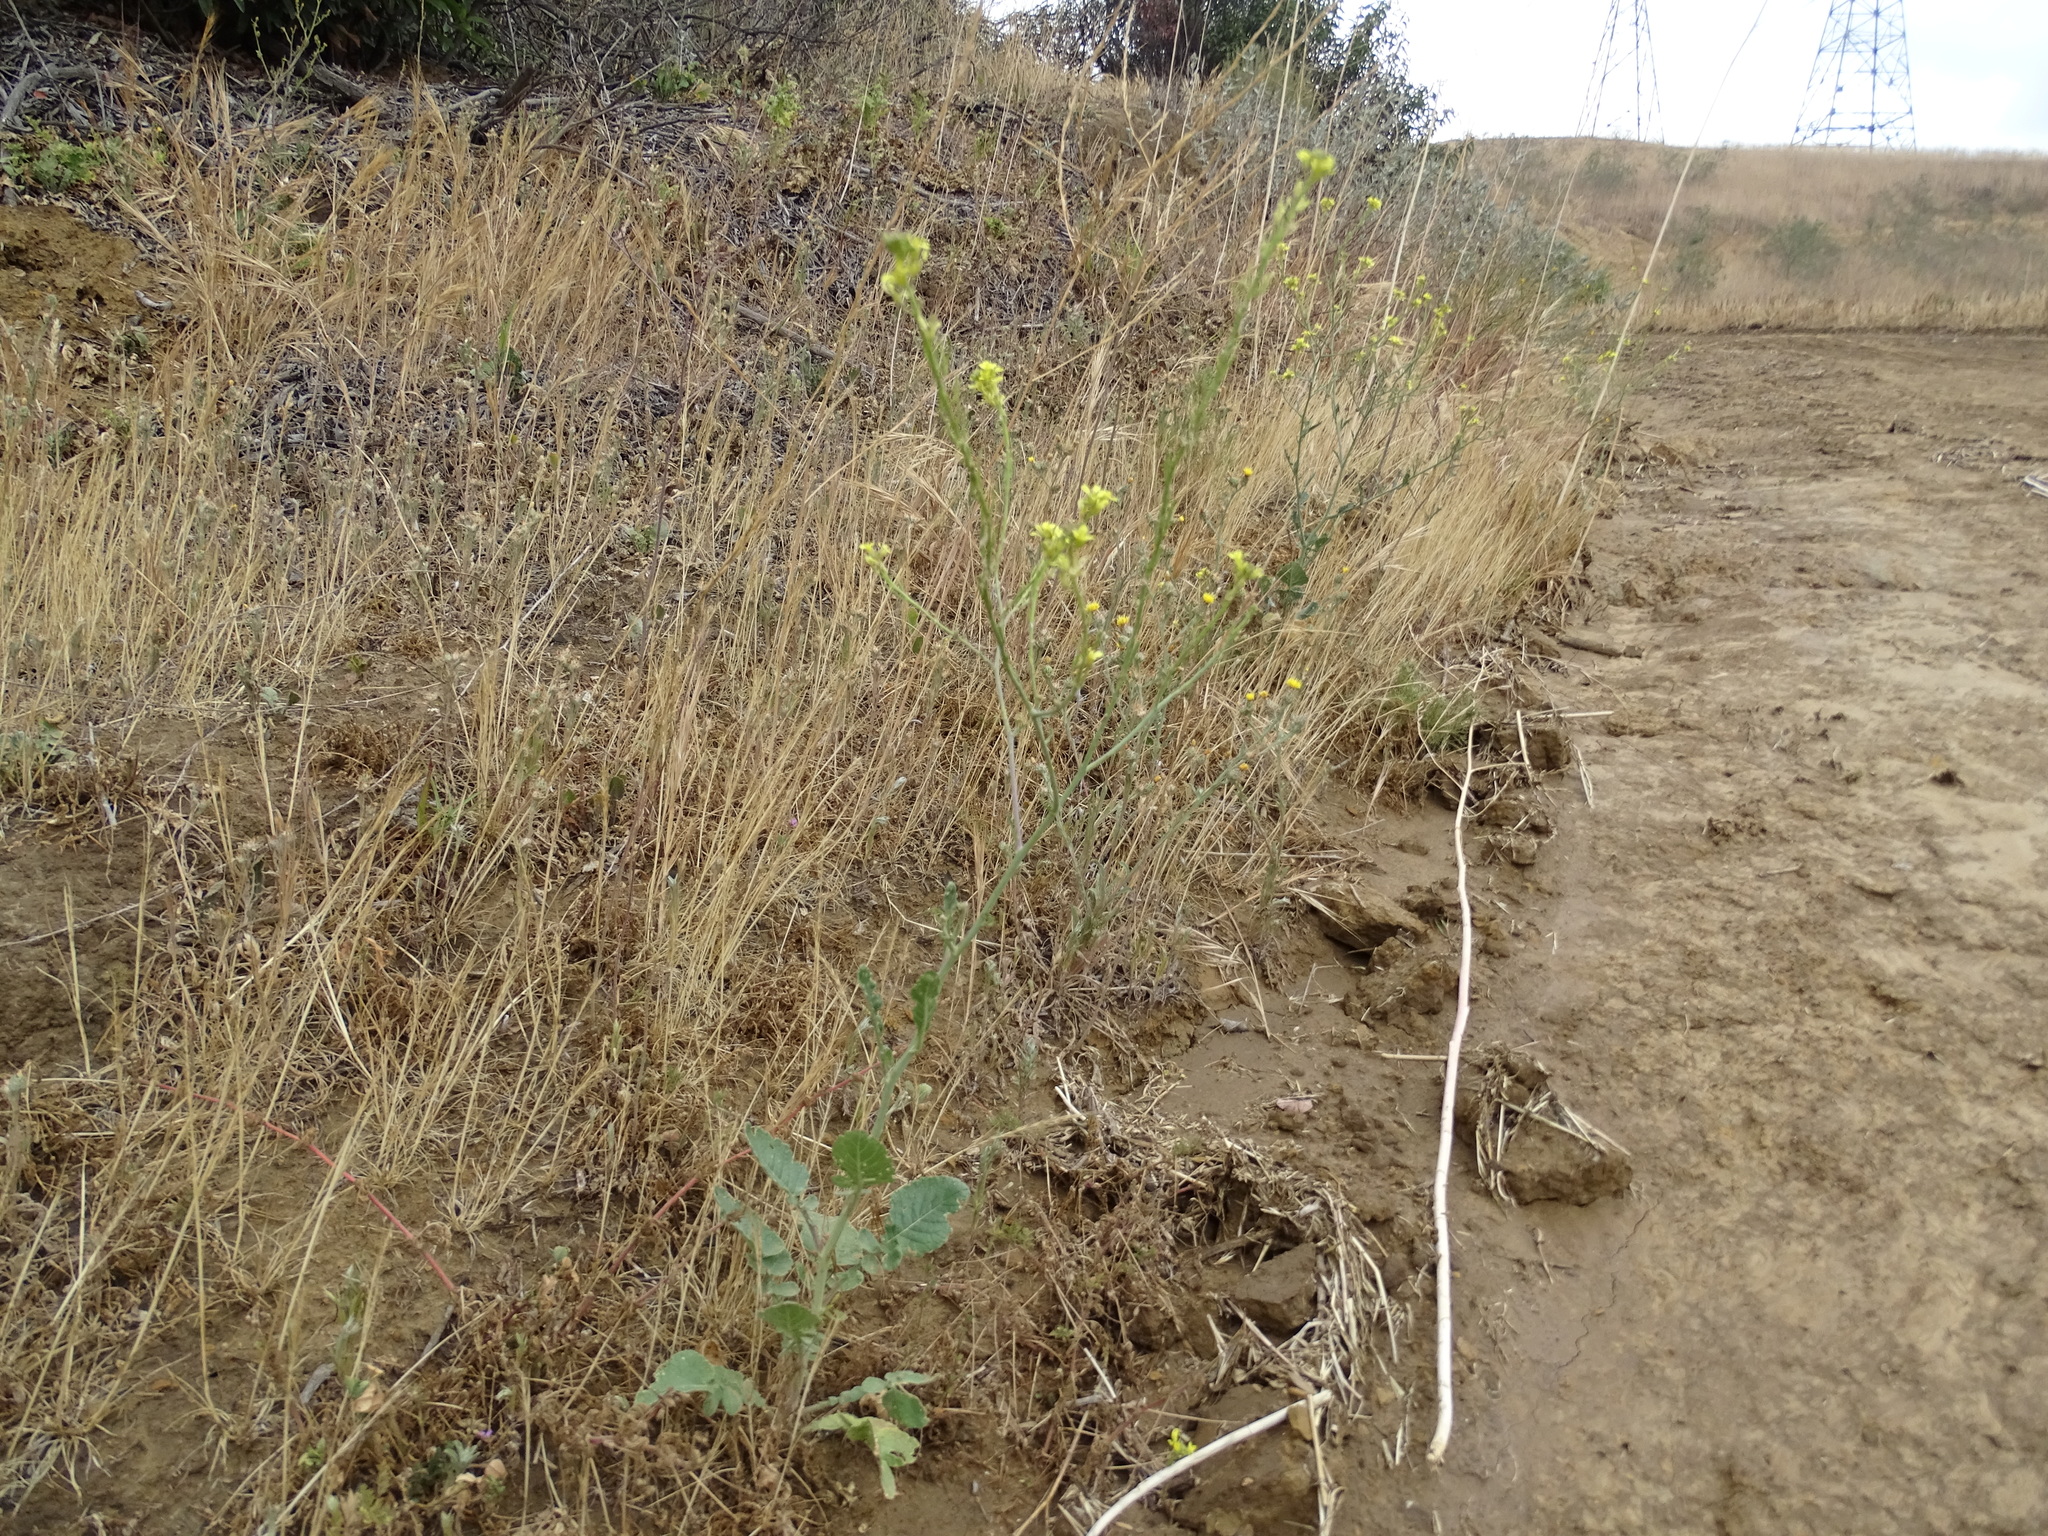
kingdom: Plantae
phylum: Tracheophyta
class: Magnoliopsida
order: Brassicales
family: Brassicaceae
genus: Hirschfeldia
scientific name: Hirschfeldia incana
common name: Hoary mustard
